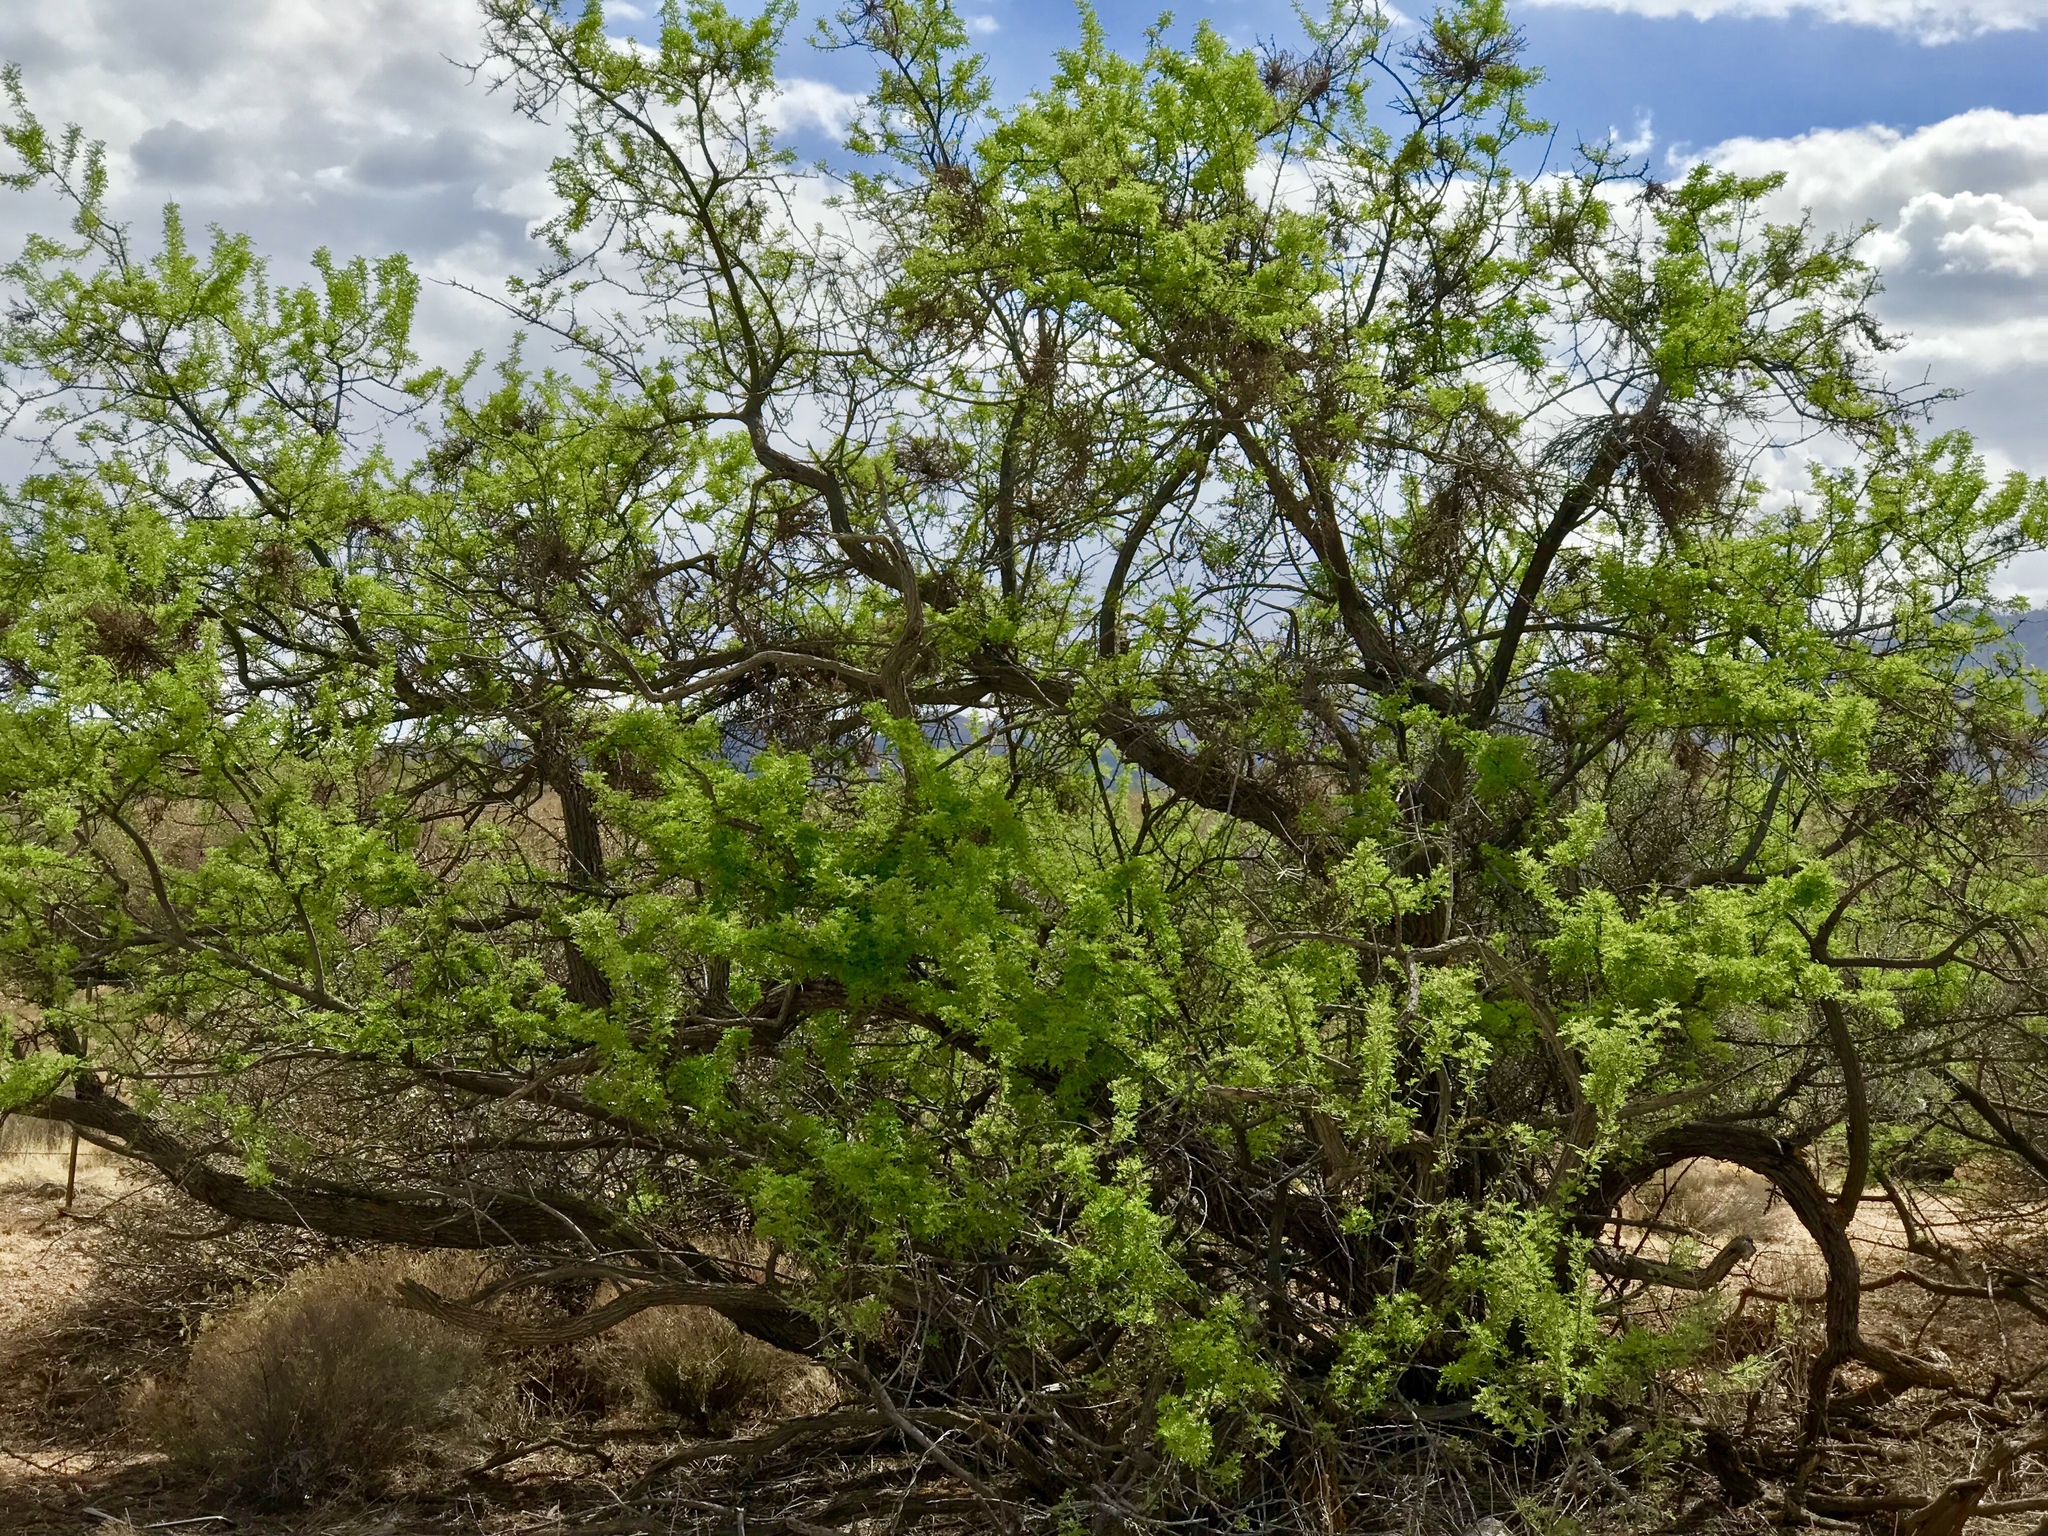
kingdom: Plantae
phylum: Tracheophyta
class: Magnoliopsida
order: Fabales
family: Fabaceae
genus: Senegalia
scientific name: Senegalia greggii
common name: Texas-mimosa
